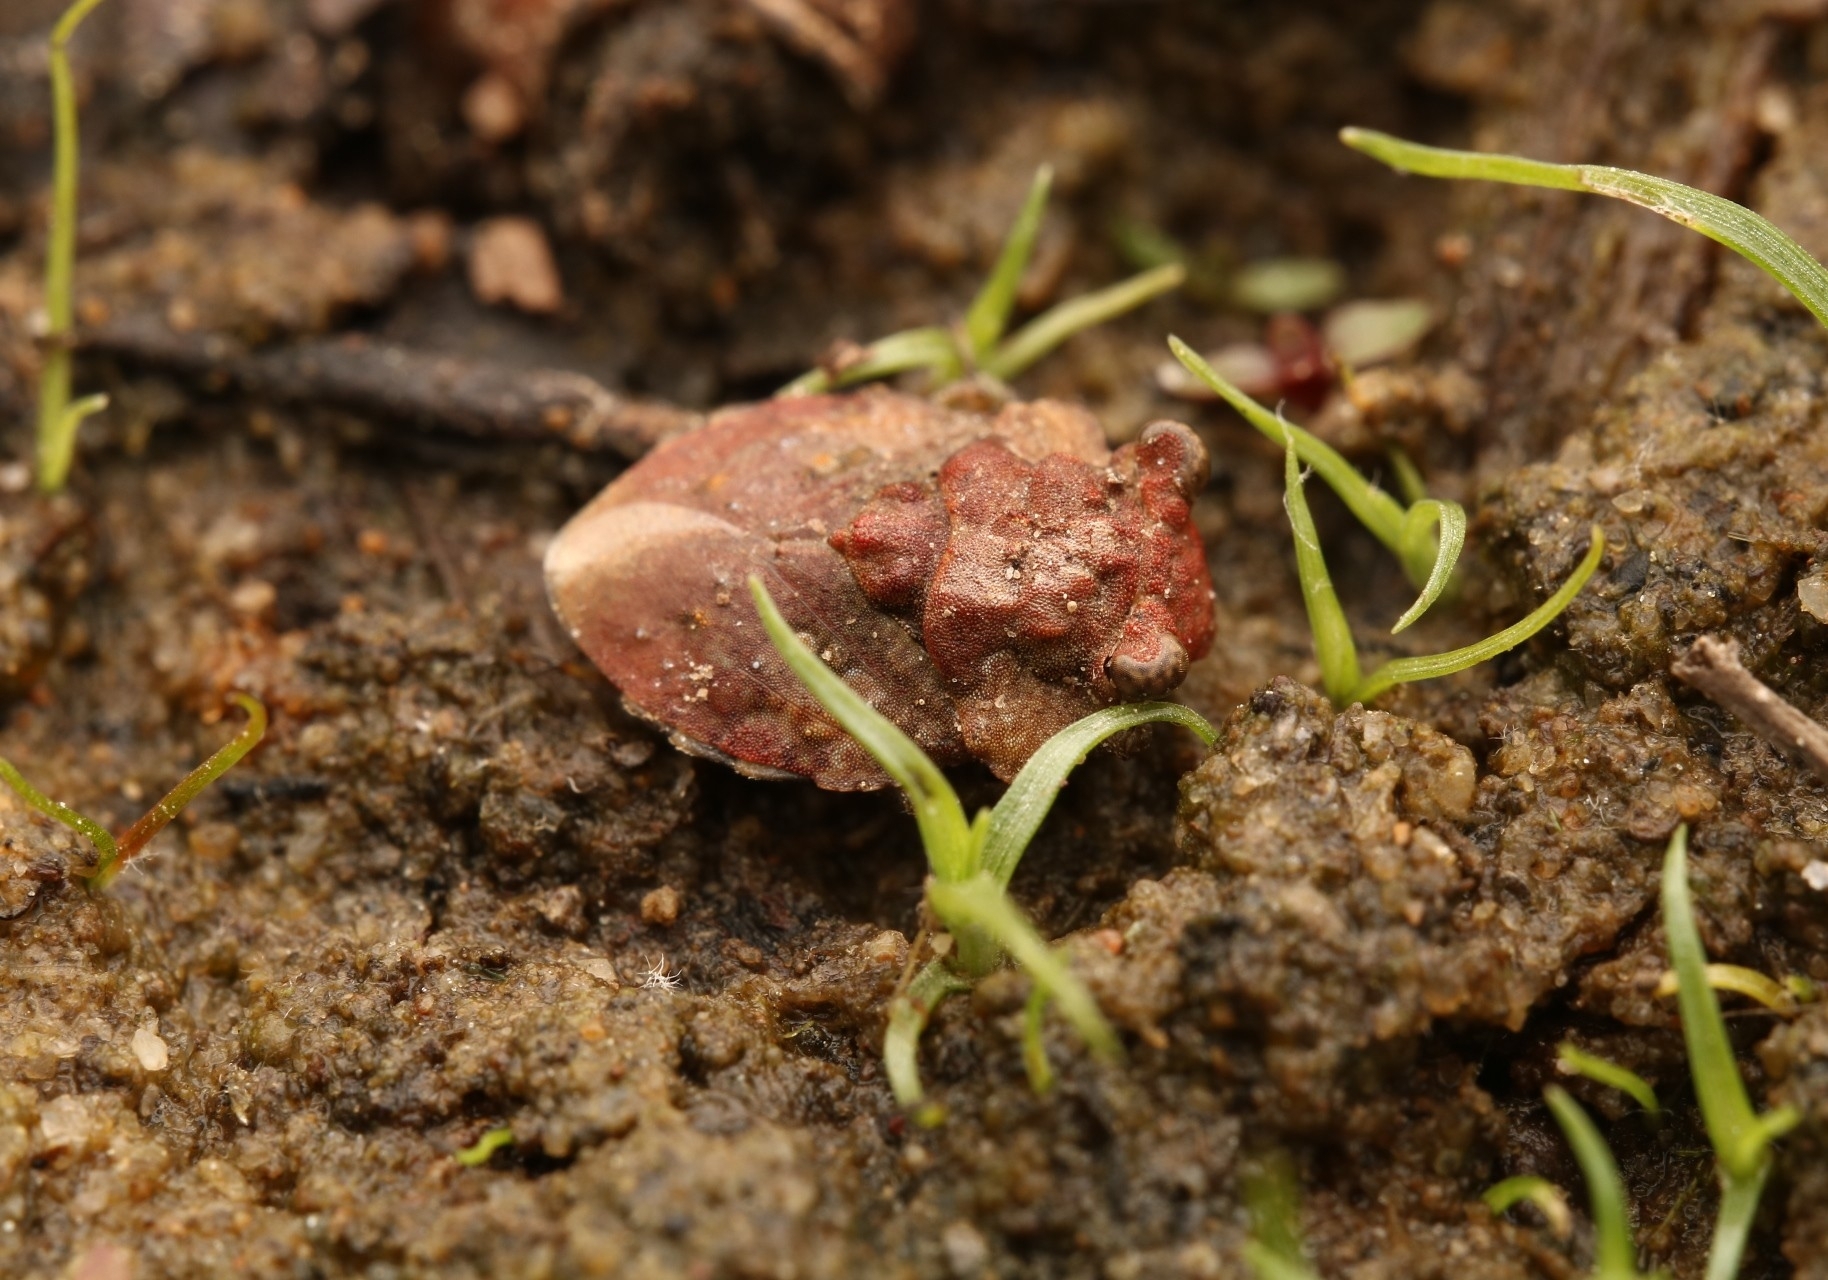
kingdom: Animalia
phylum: Arthropoda
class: Insecta
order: Hemiptera
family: Gelastocoridae
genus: Gelastocoris
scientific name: Gelastocoris oculatus
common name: Toad bug
